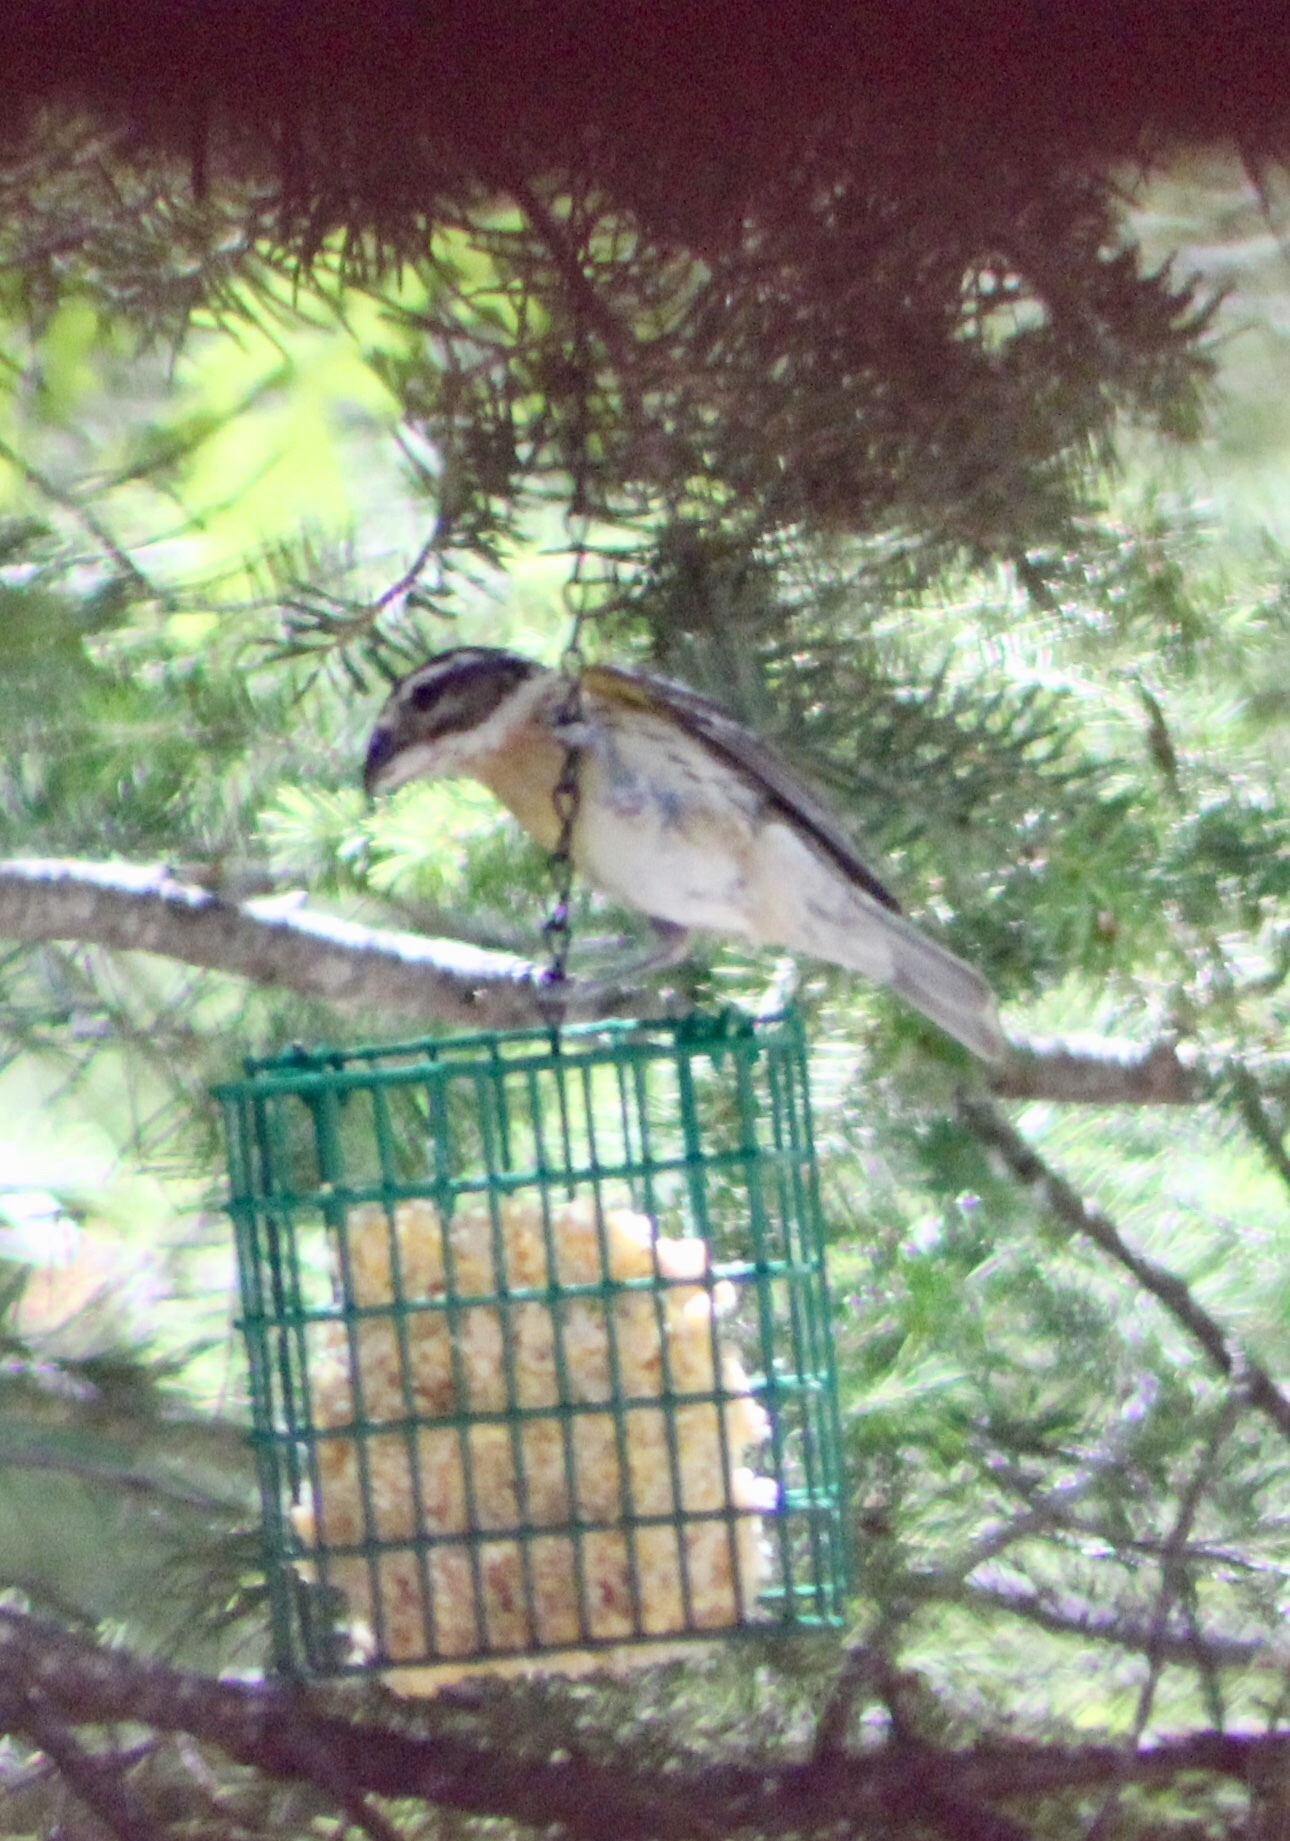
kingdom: Animalia
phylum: Chordata
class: Aves
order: Passeriformes
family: Cardinalidae
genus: Pheucticus
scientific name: Pheucticus melanocephalus
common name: Black-headed grosbeak
